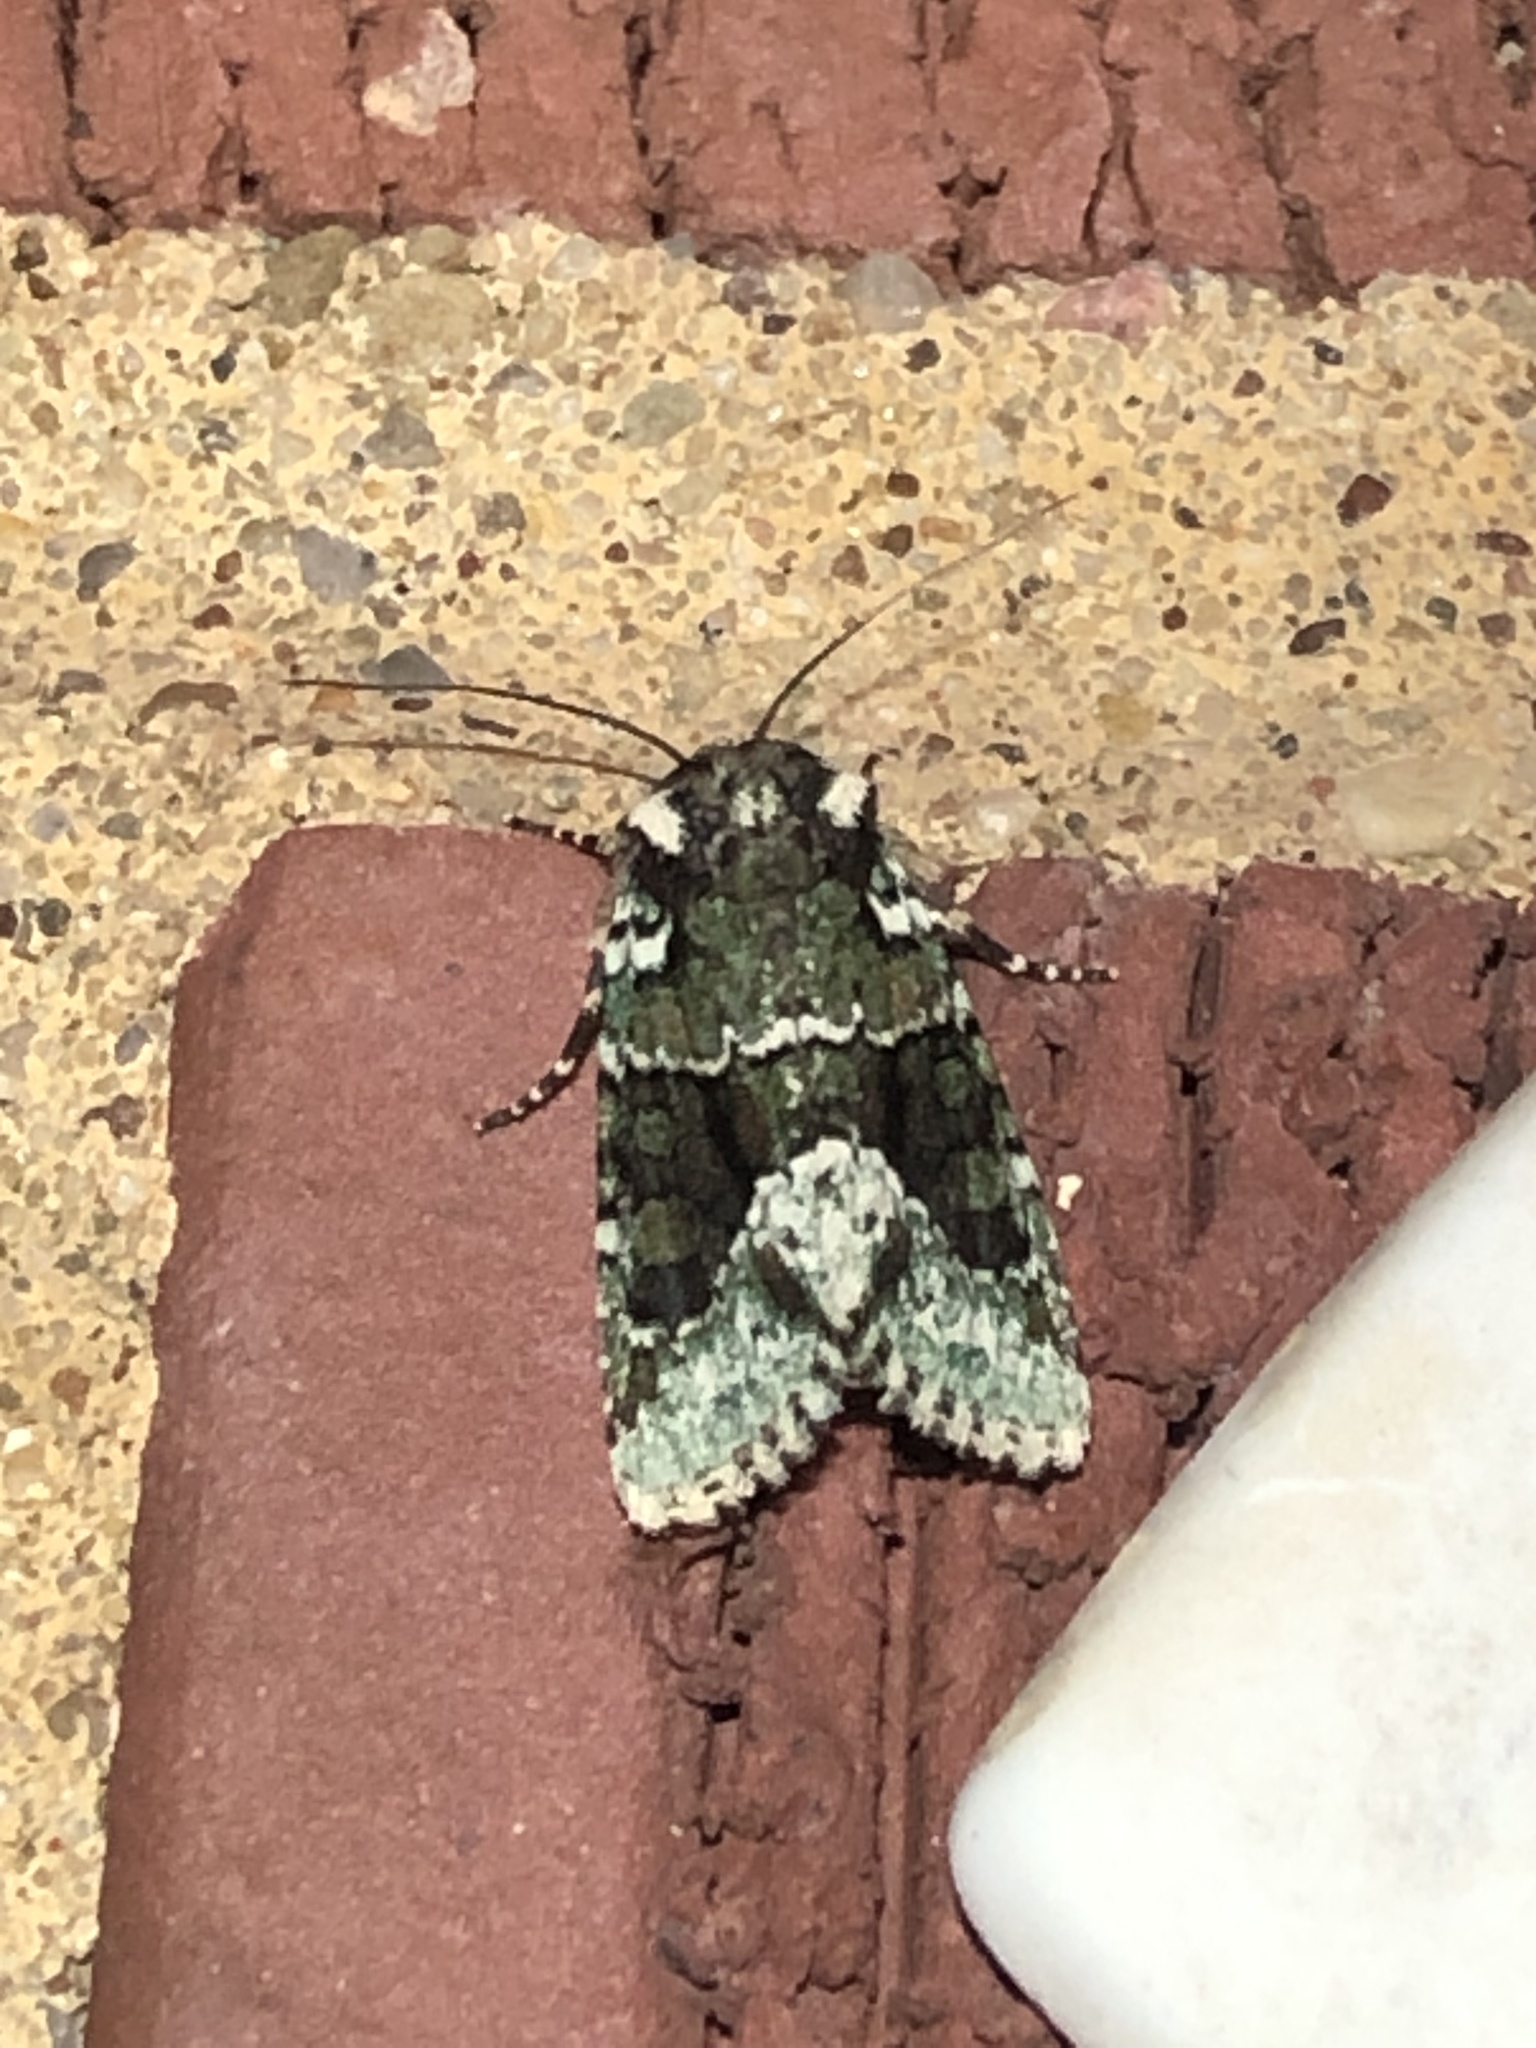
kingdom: Animalia
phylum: Arthropoda
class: Insecta
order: Lepidoptera
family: Noctuidae
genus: Lacinipolia
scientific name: Lacinipolia explicata
